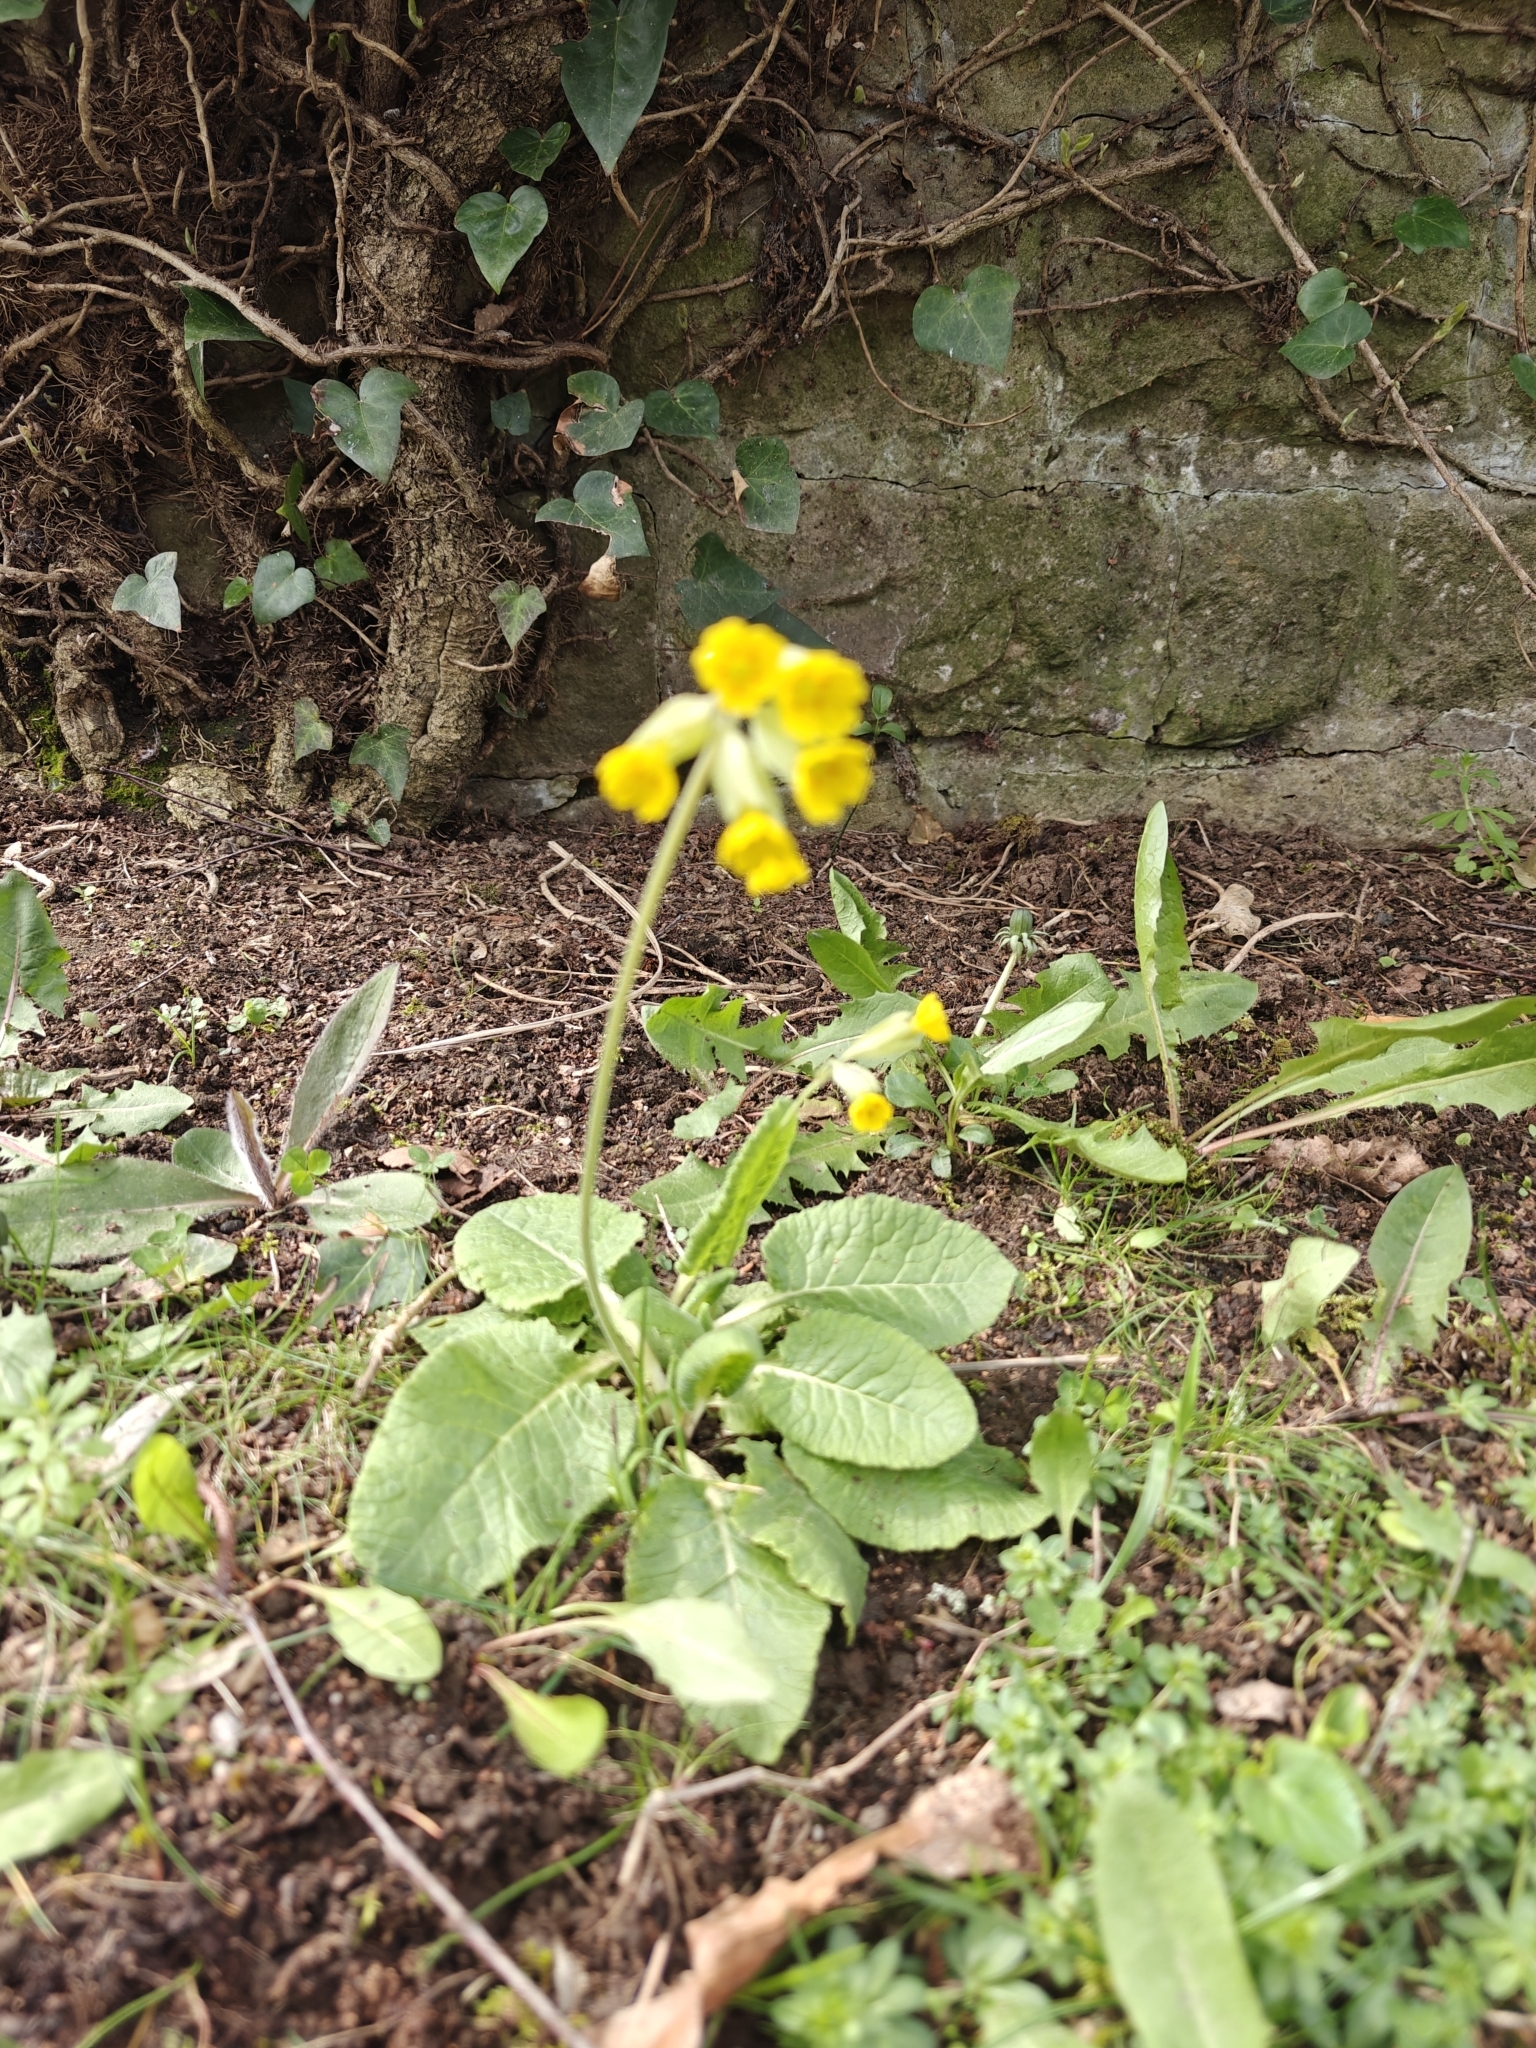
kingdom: Plantae
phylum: Tracheophyta
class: Magnoliopsida
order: Ericales
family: Primulaceae
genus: Primula
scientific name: Primula veris
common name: Cowslip
